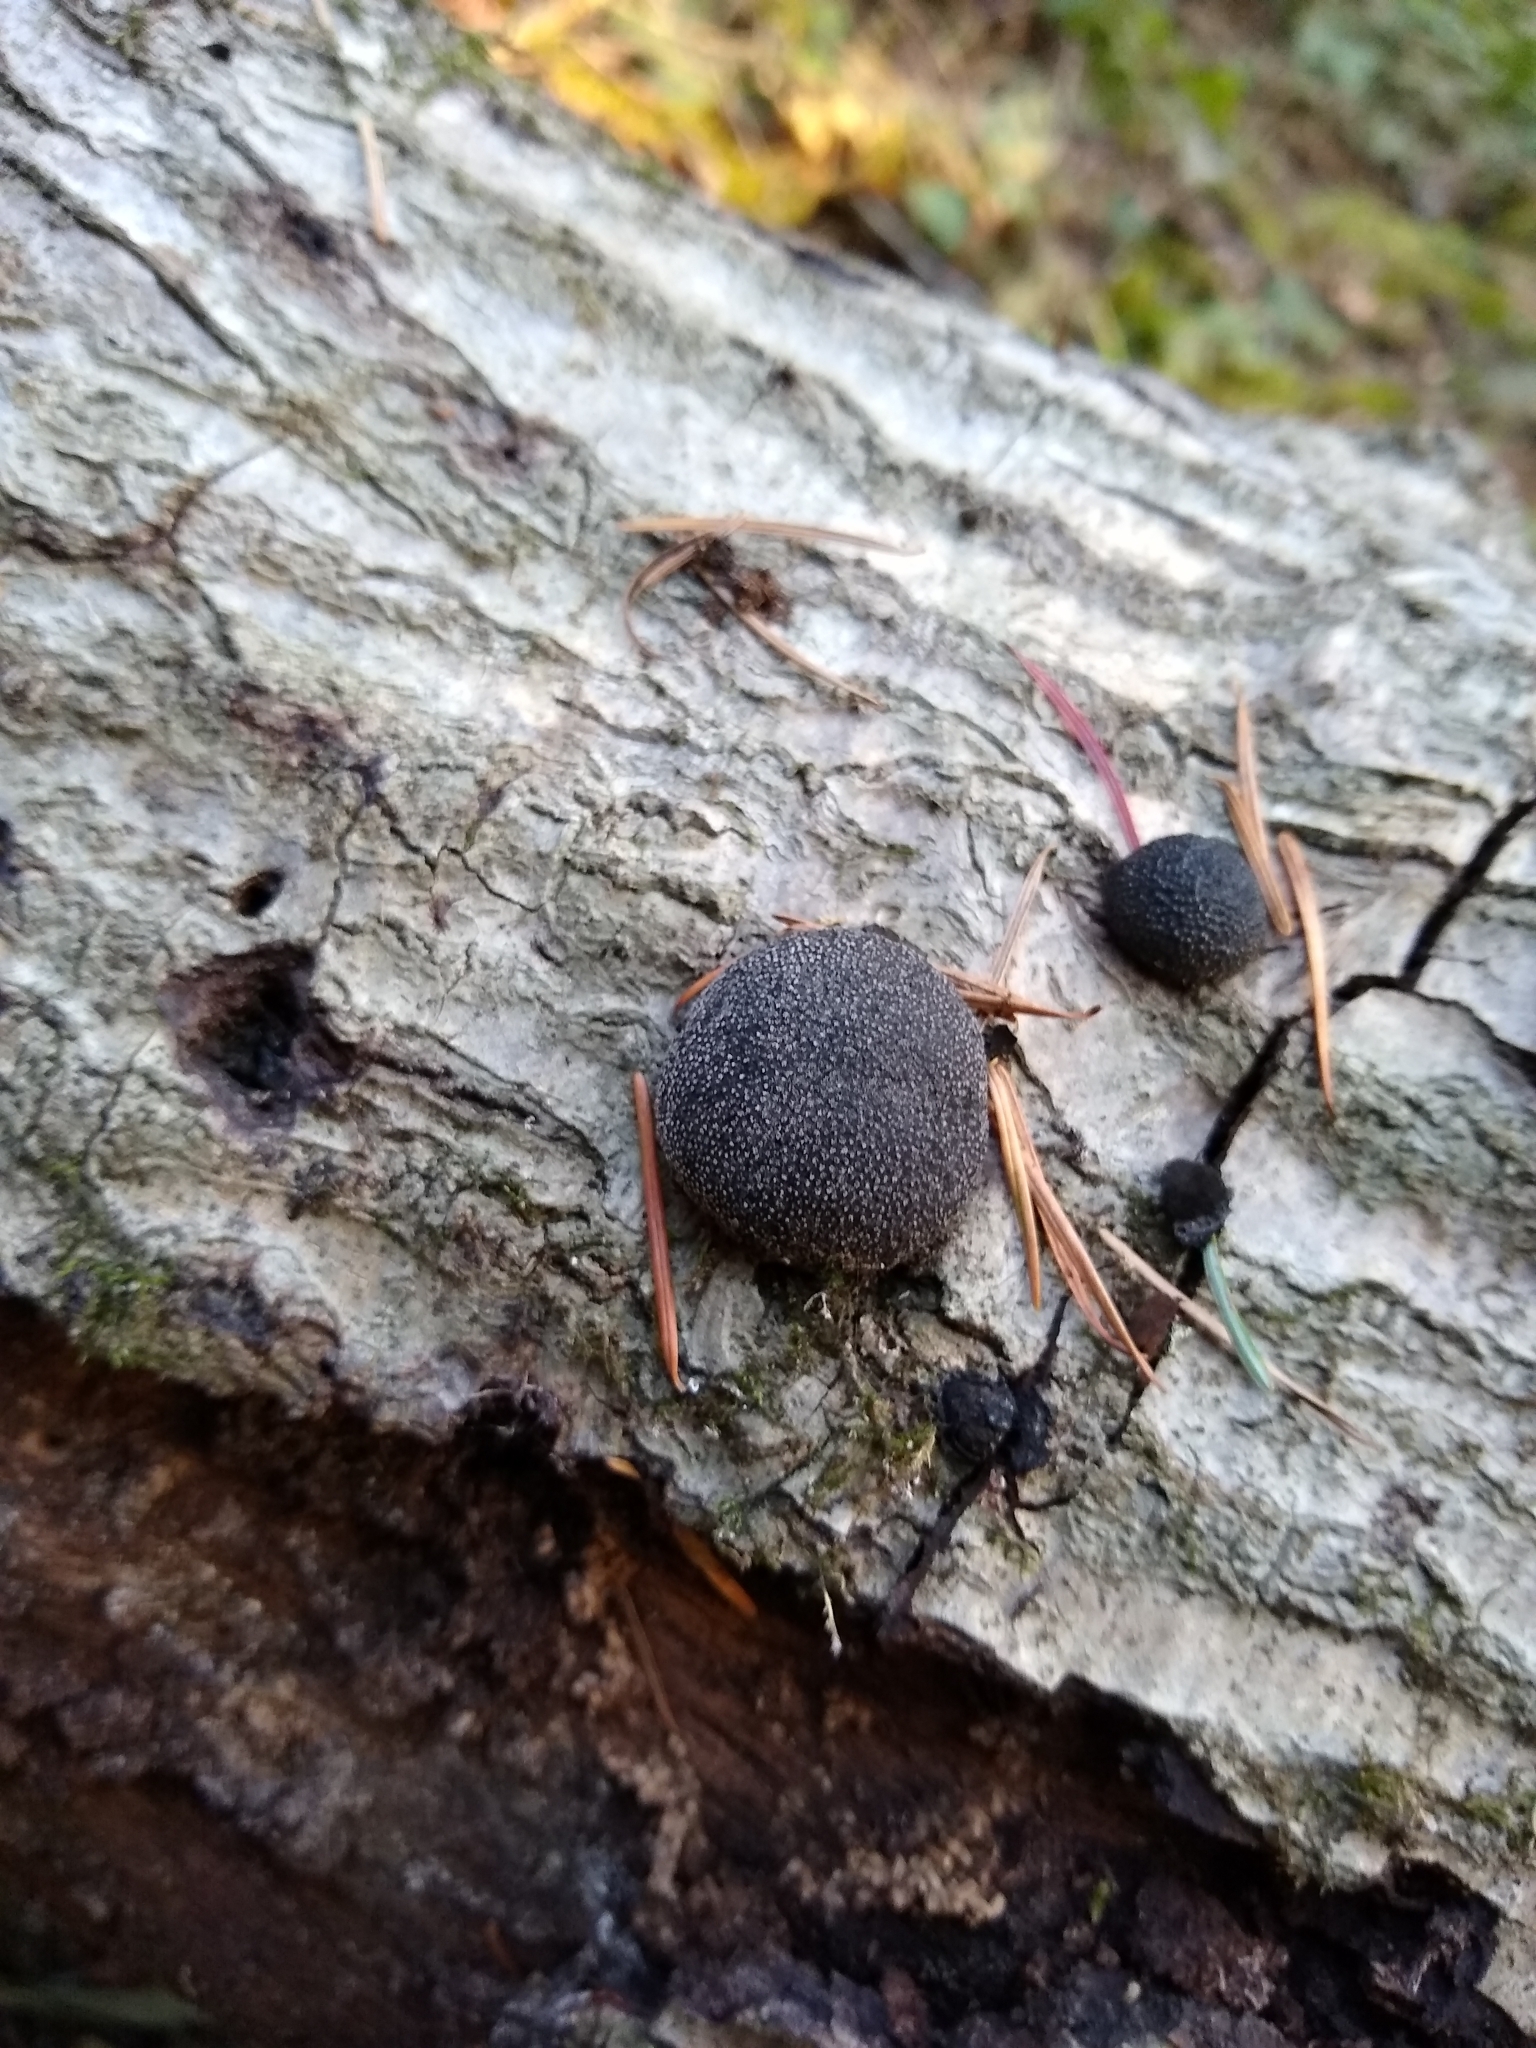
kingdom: Fungi
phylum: Ascomycota
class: Sordariomycetes
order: Xylariales
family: Hypoxylaceae
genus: Annulohypoxylon
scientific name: Annulohypoxylon thouarsianum
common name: Cramp balls
